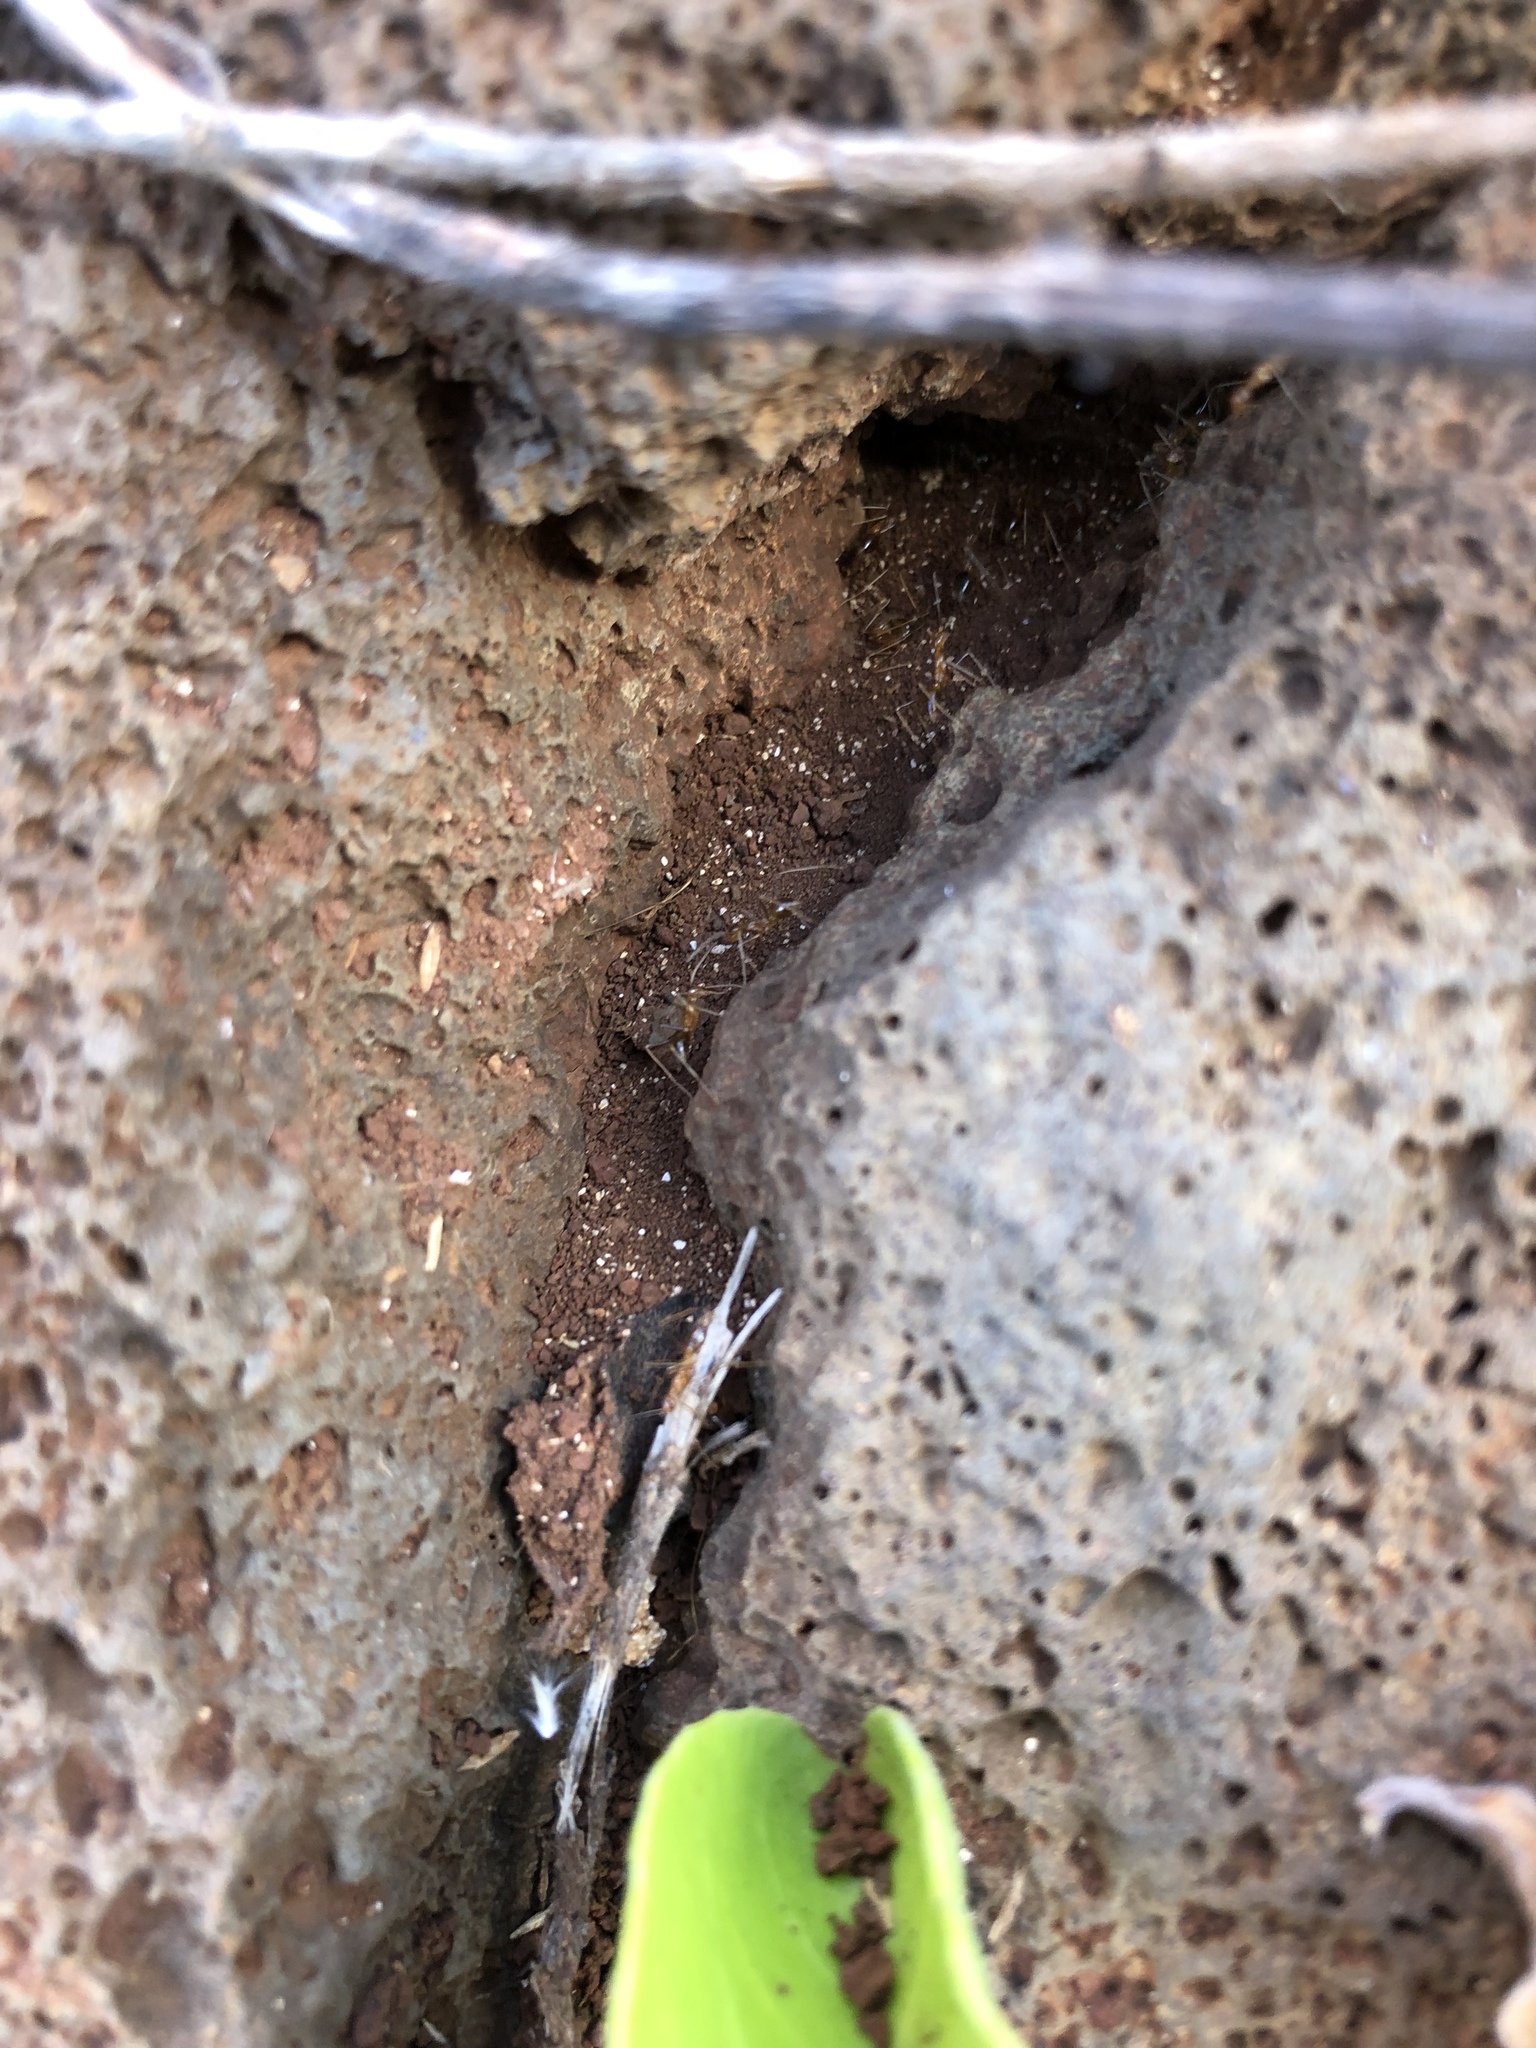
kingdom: Animalia
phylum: Arthropoda
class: Insecta
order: Hymenoptera
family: Formicidae
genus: Anoplolepis
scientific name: Anoplolepis gracilipes
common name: Ant
